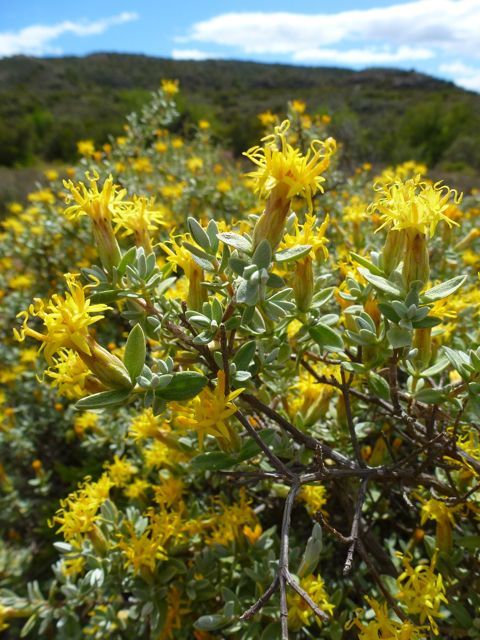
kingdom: Plantae
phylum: Tracheophyta
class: Magnoliopsida
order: Asterales
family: Asteraceae
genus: Pteronia
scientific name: Pteronia incana
